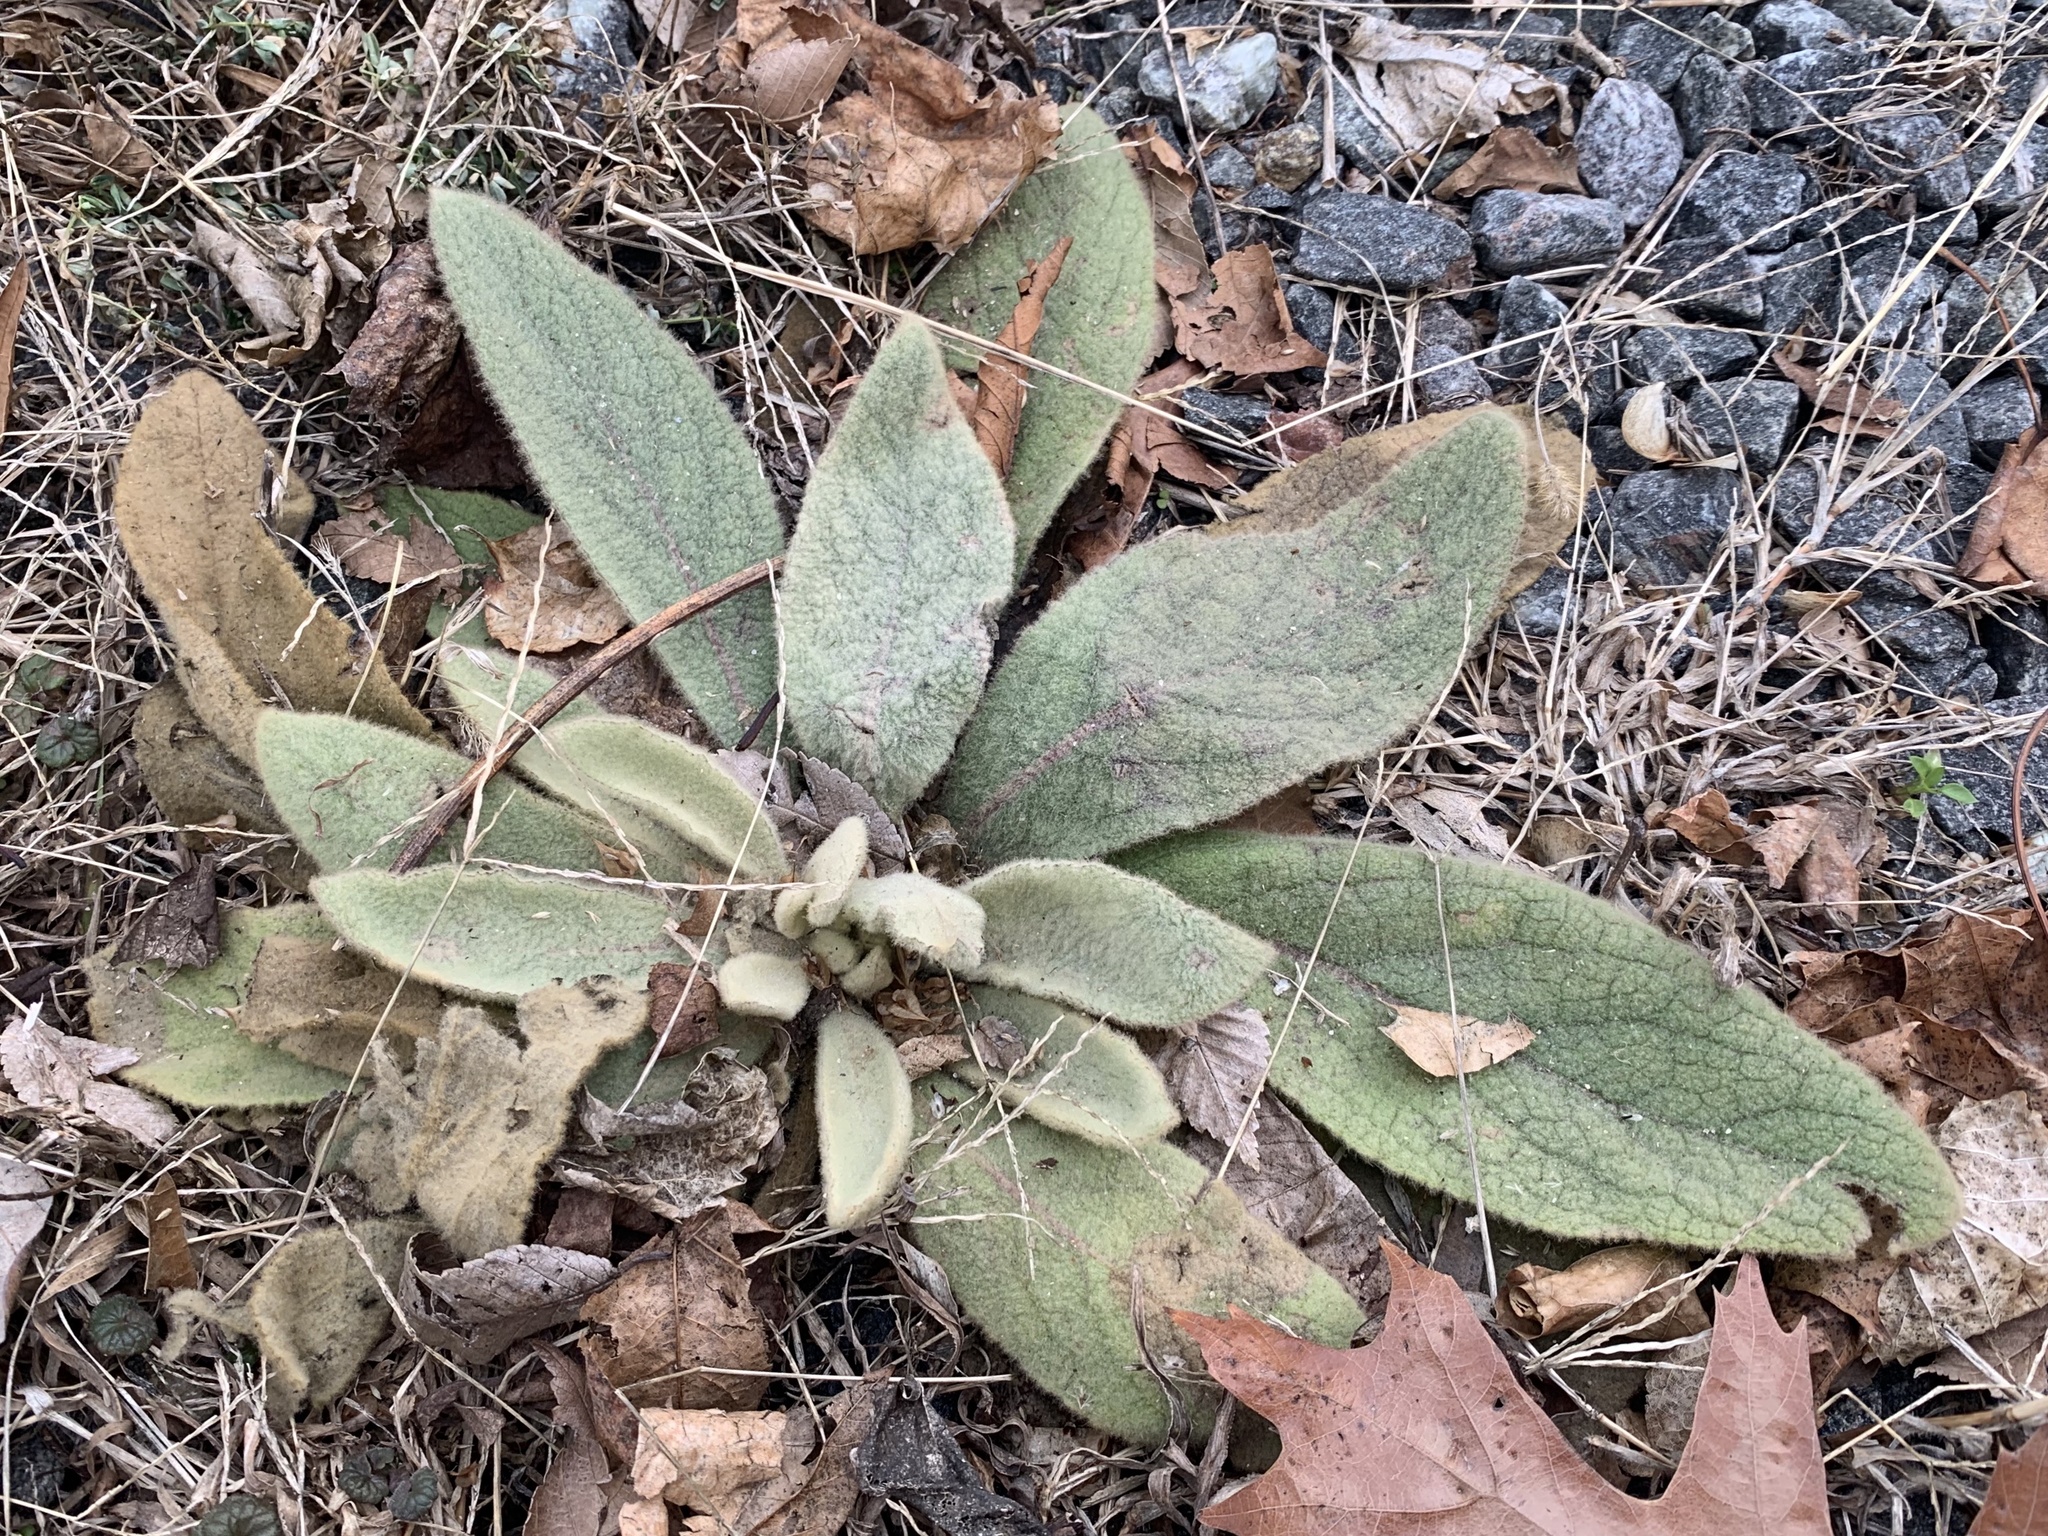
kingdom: Plantae
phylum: Tracheophyta
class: Magnoliopsida
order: Lamiales
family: Scrophulariaceae
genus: Verbascum
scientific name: Verbascum thapsus
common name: Common mullein
